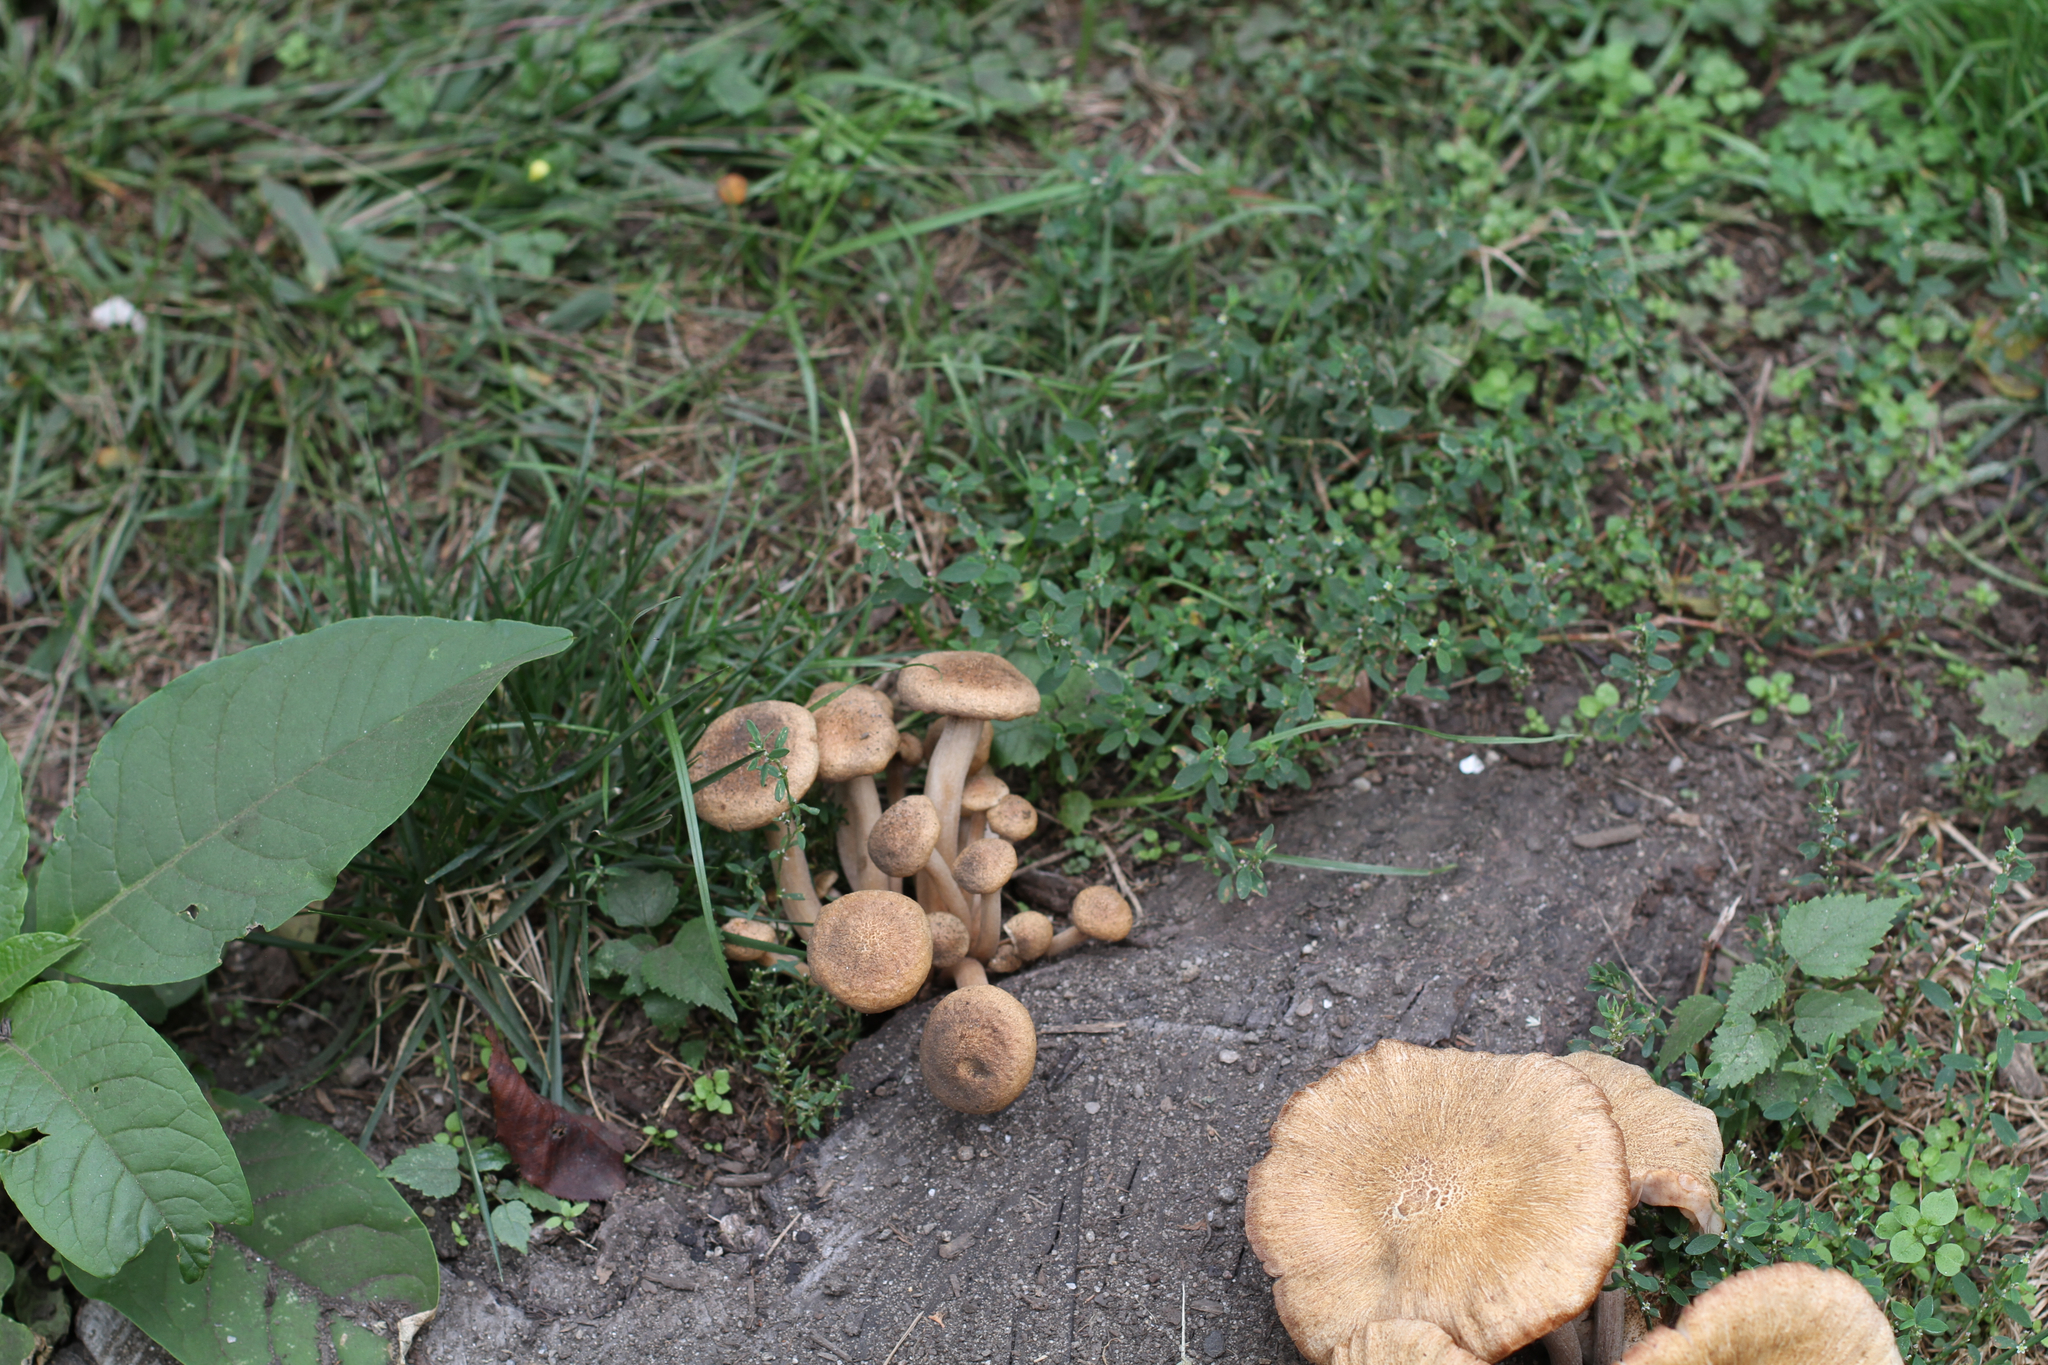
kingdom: Fungi
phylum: Basidiomycota
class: Agaricomycetes
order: Agaricales
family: Physalacriaceae
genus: Desarmillaria
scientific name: Desarmillaria caespitosa
